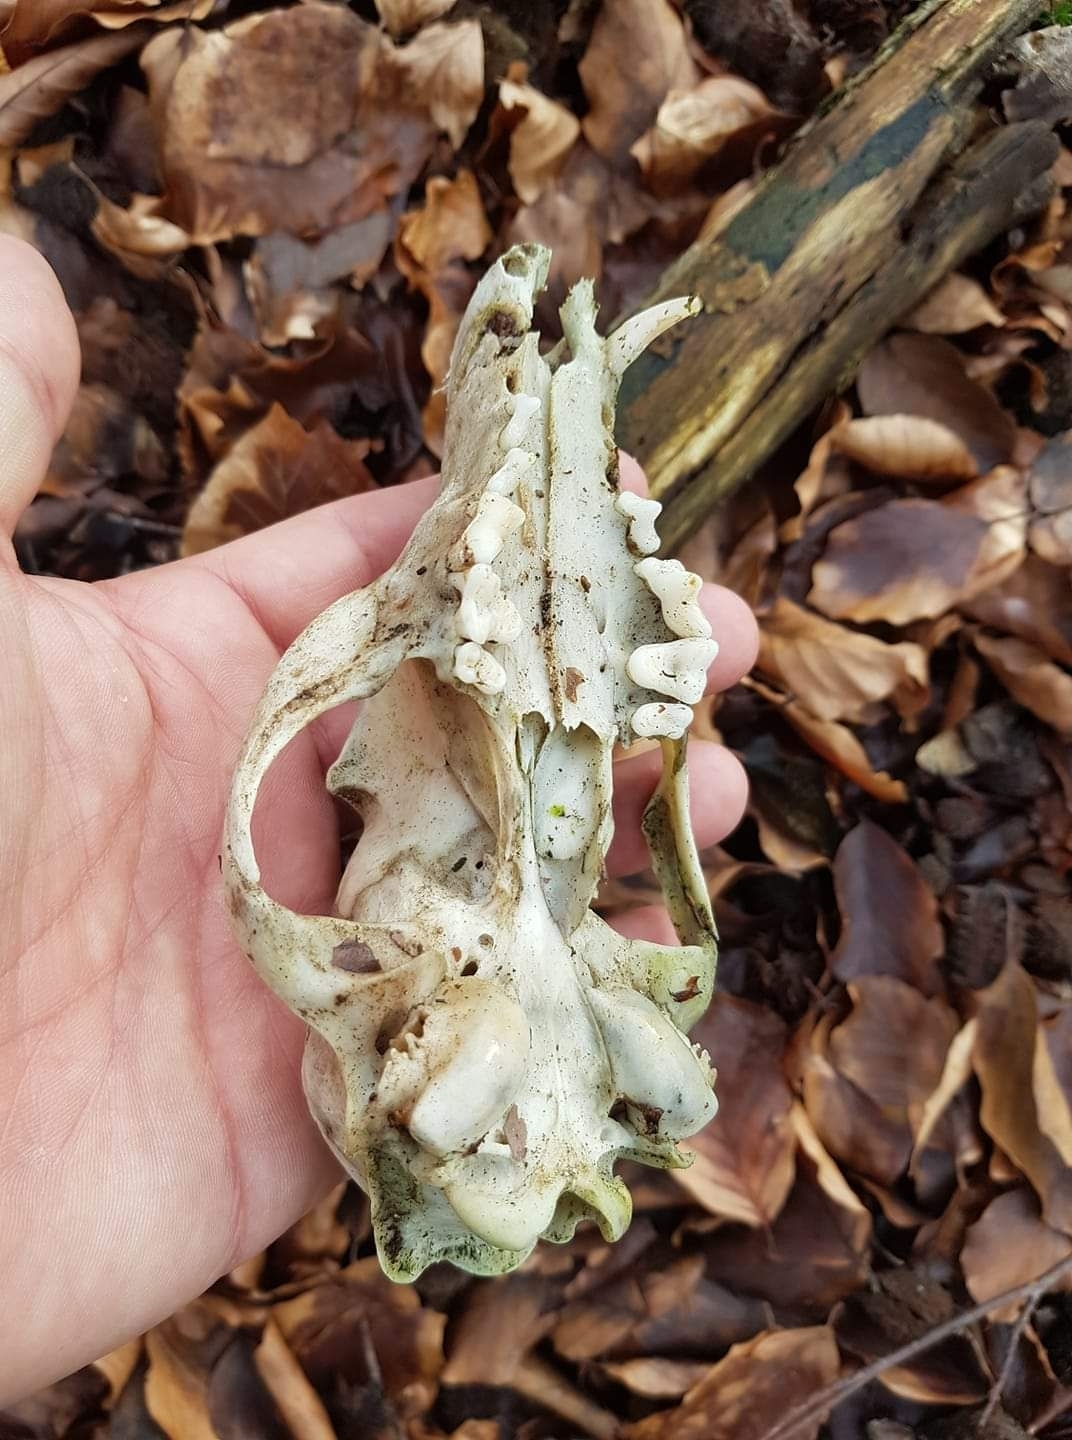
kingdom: Animalia
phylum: Chordata
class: Mammalia
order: Carnivora
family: Canidae
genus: Vulpes
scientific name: Vulpes vulpes
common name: Red fox
